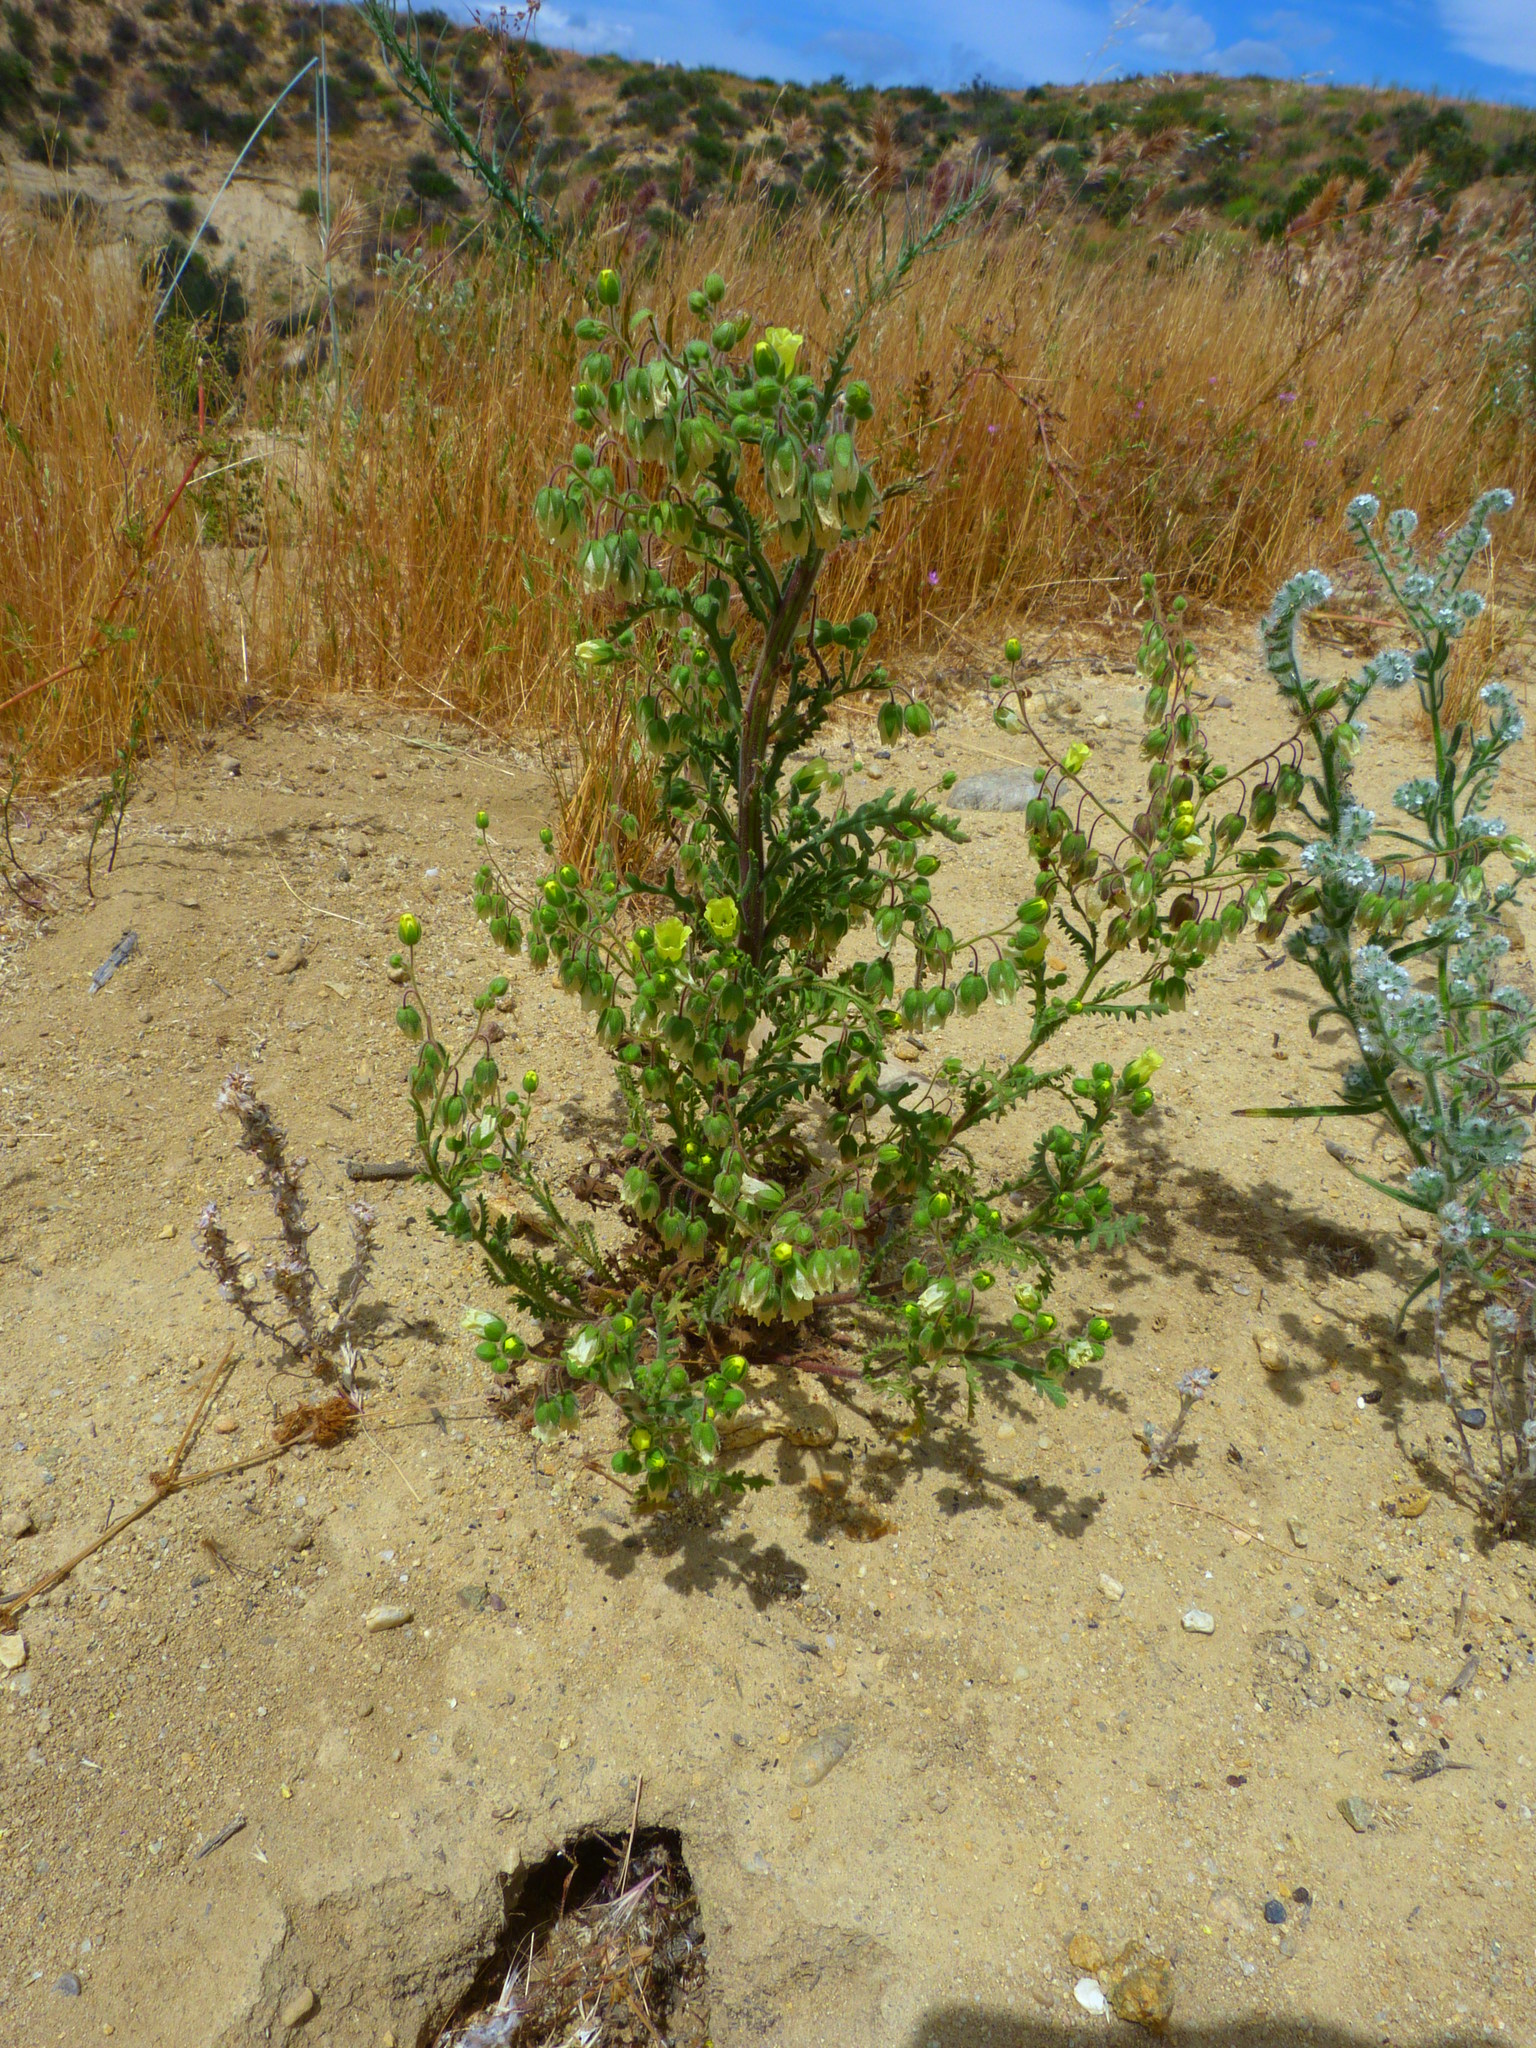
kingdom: Plantae
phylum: Tracheophyta
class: Magnoliopsida
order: Boraginales
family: Hydrophyllaceae
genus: Emmenanthe
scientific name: Emmenanthe penduliflora
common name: Whispering-bells
